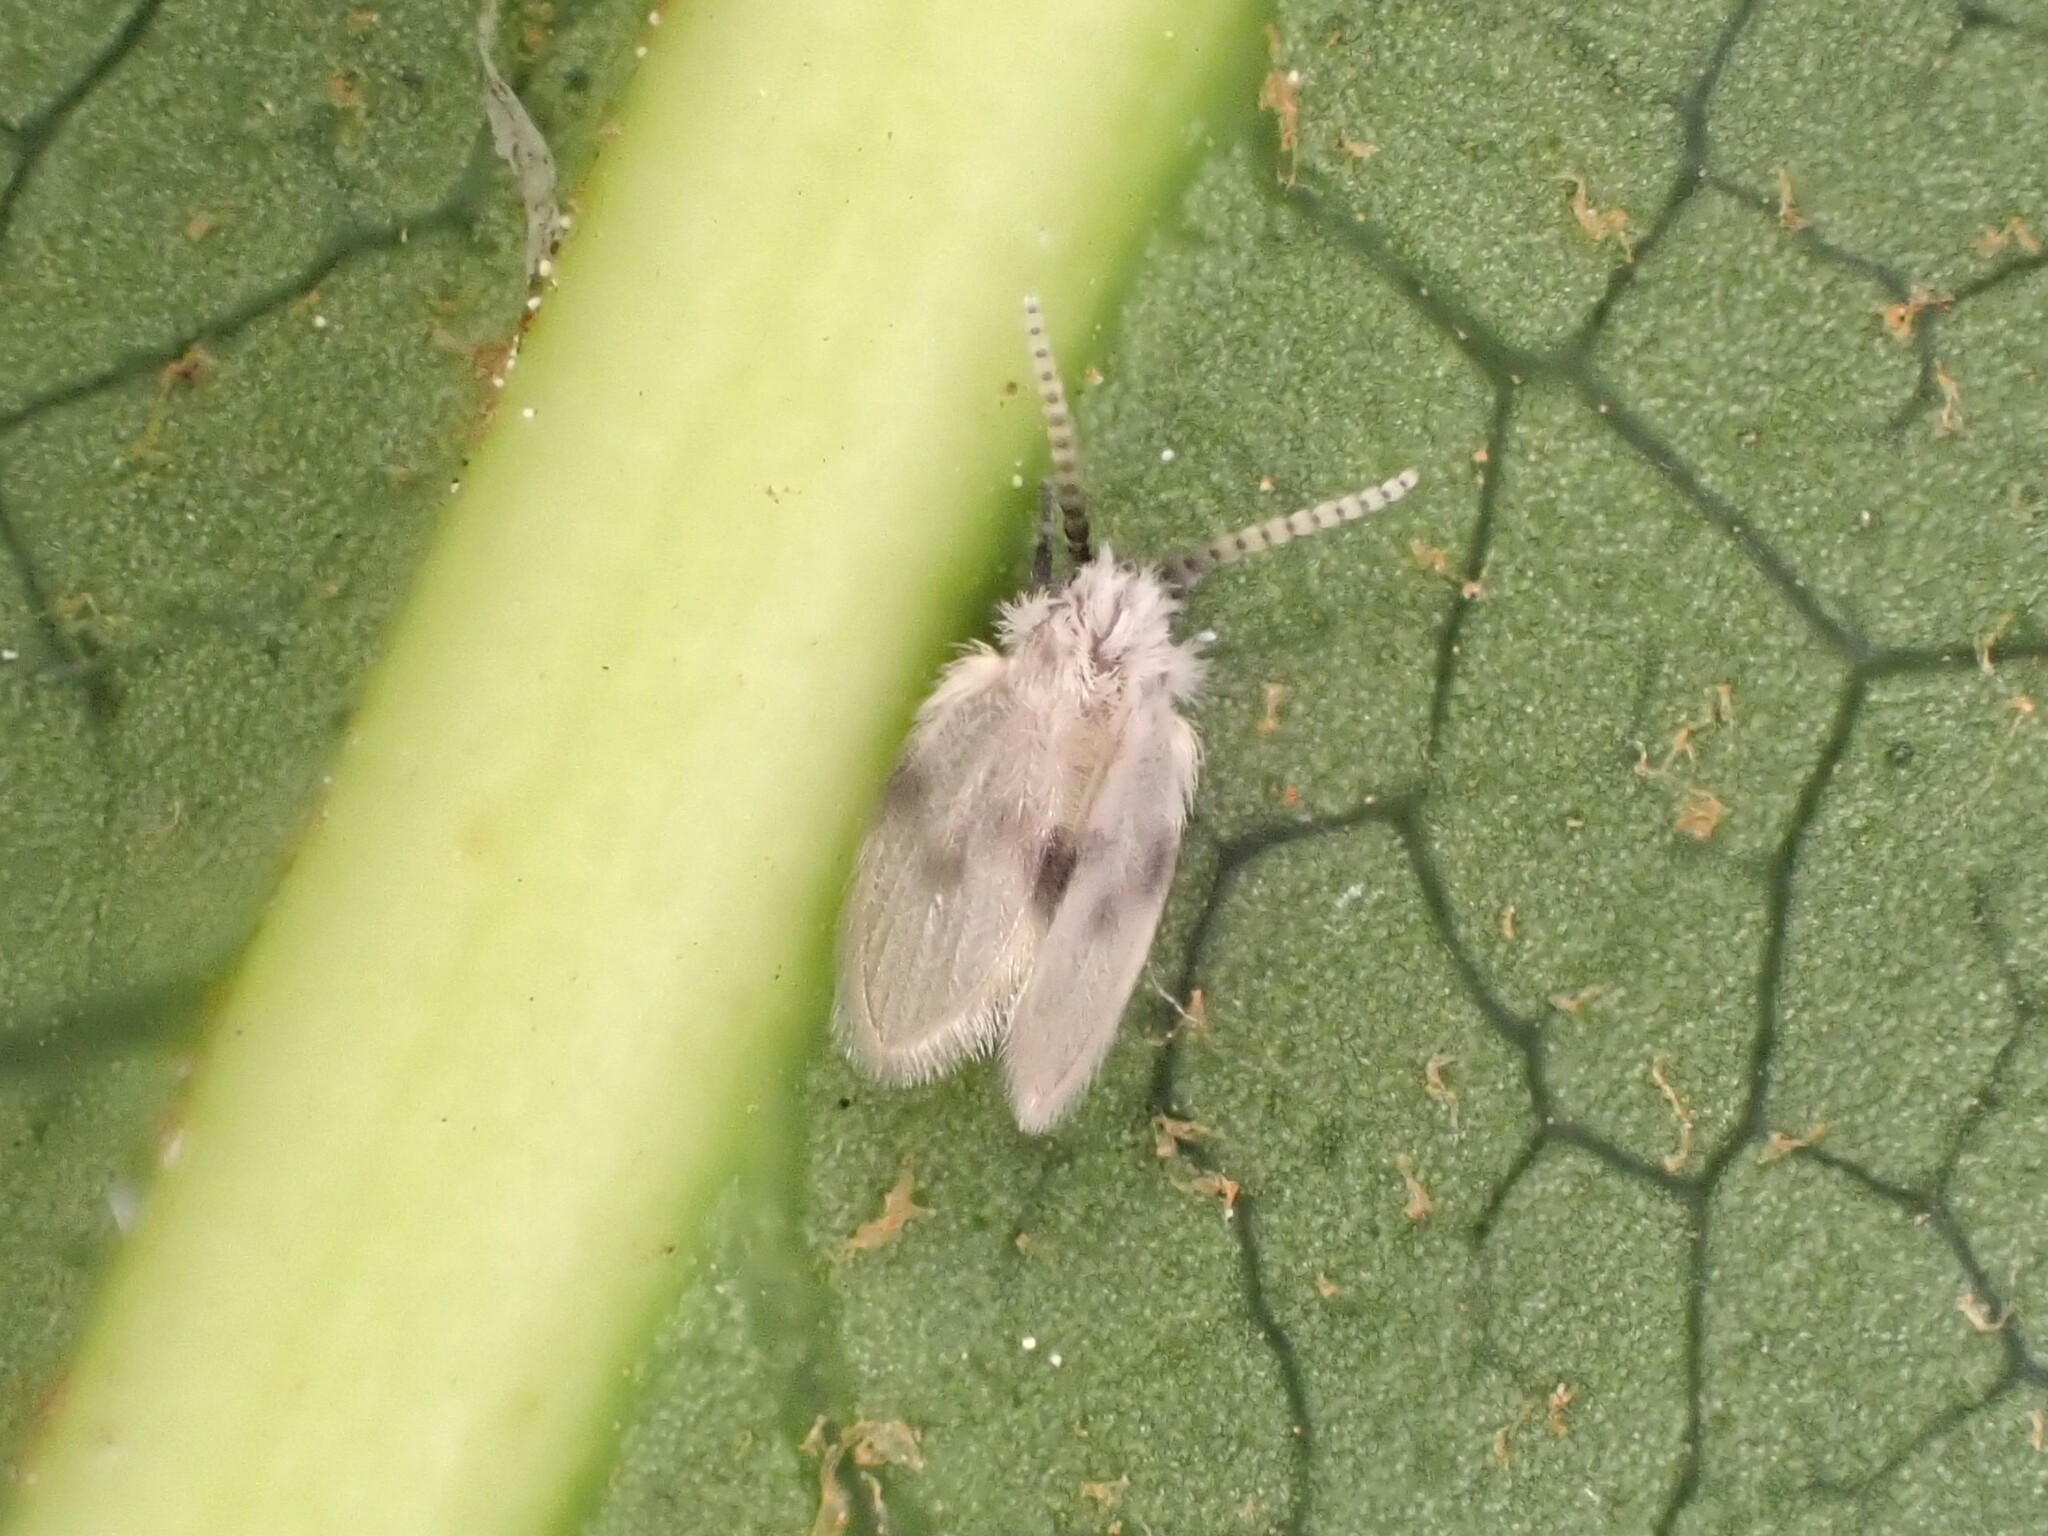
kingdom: Animalia
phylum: Arthropoda
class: Insecta
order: Diptera
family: Psychodidae
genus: Psychoda
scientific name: Psychoda sigma
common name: Moth fly
